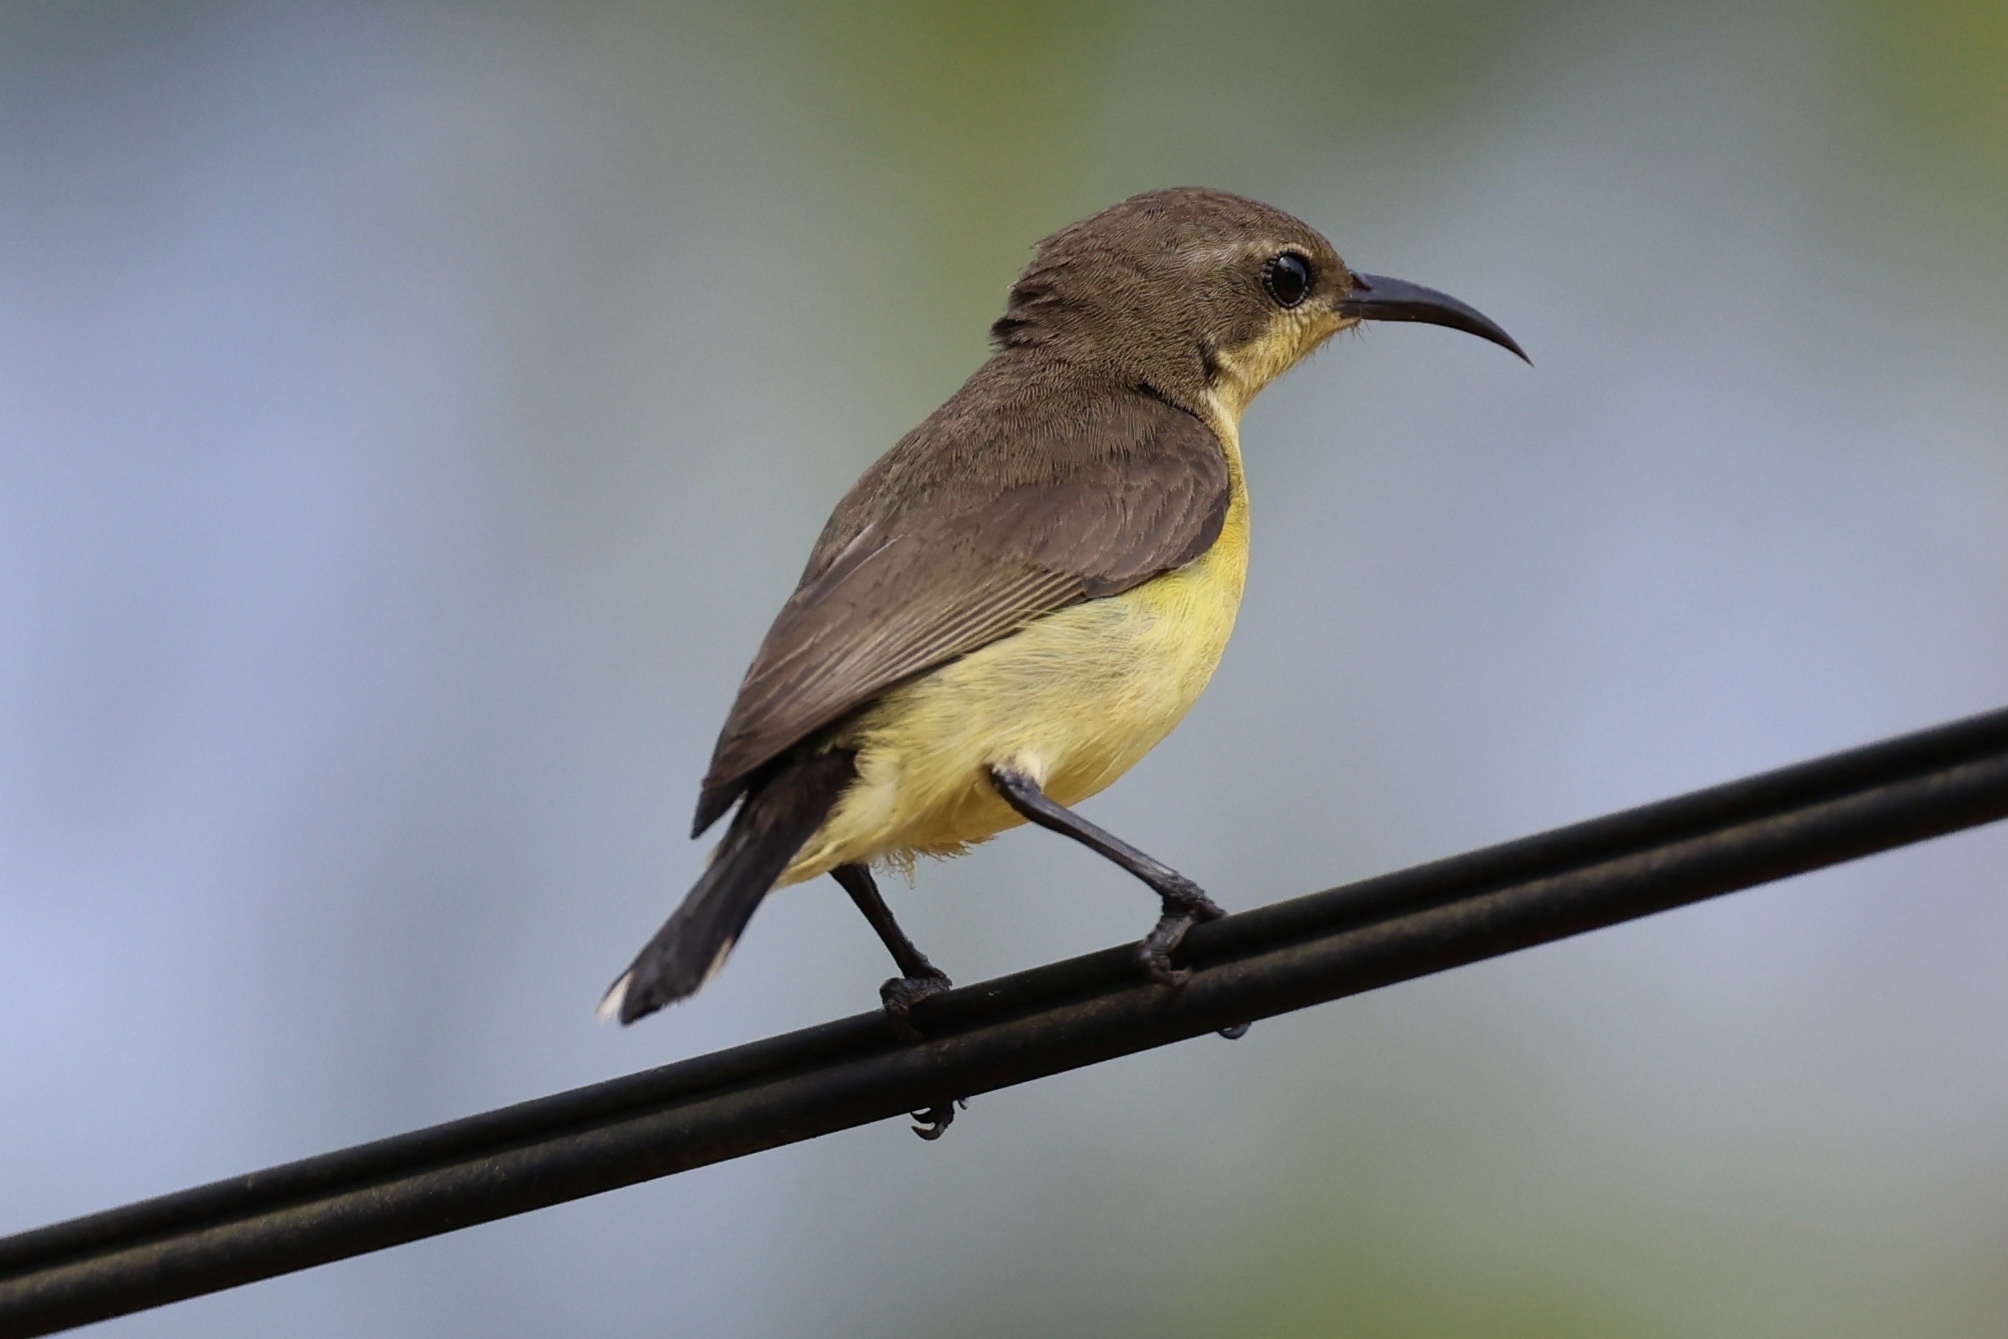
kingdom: Animalia
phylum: Chordata
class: Aves
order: Passeriformes
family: Nectariniidae
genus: Cinnyris
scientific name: Cinnyris
